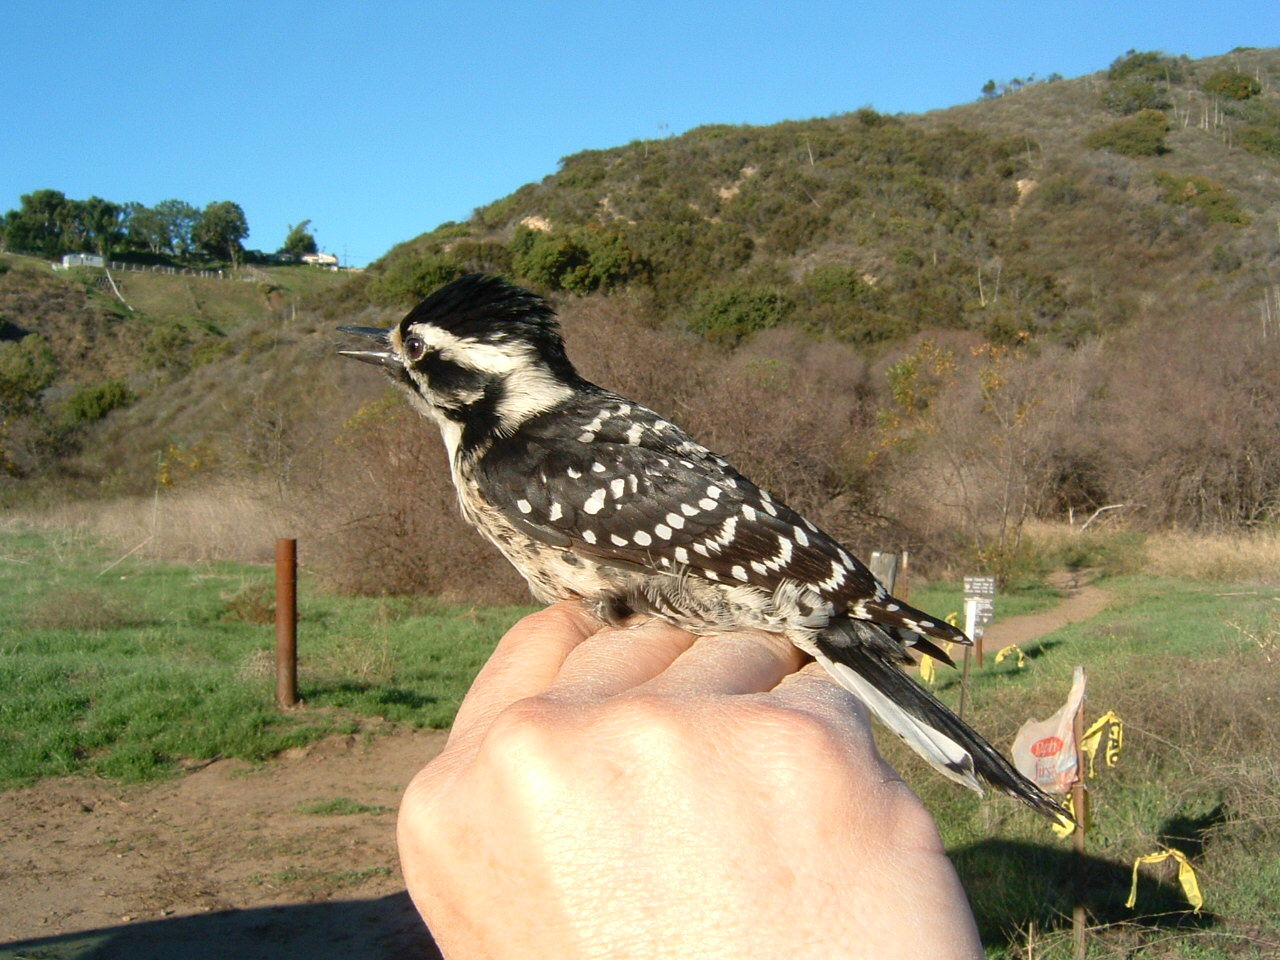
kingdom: Animalia
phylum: Chordata
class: Aves
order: Piciformes
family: Picidae
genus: Dryobates
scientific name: Dryobates nuttallii
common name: Nuttall's woodpecker
